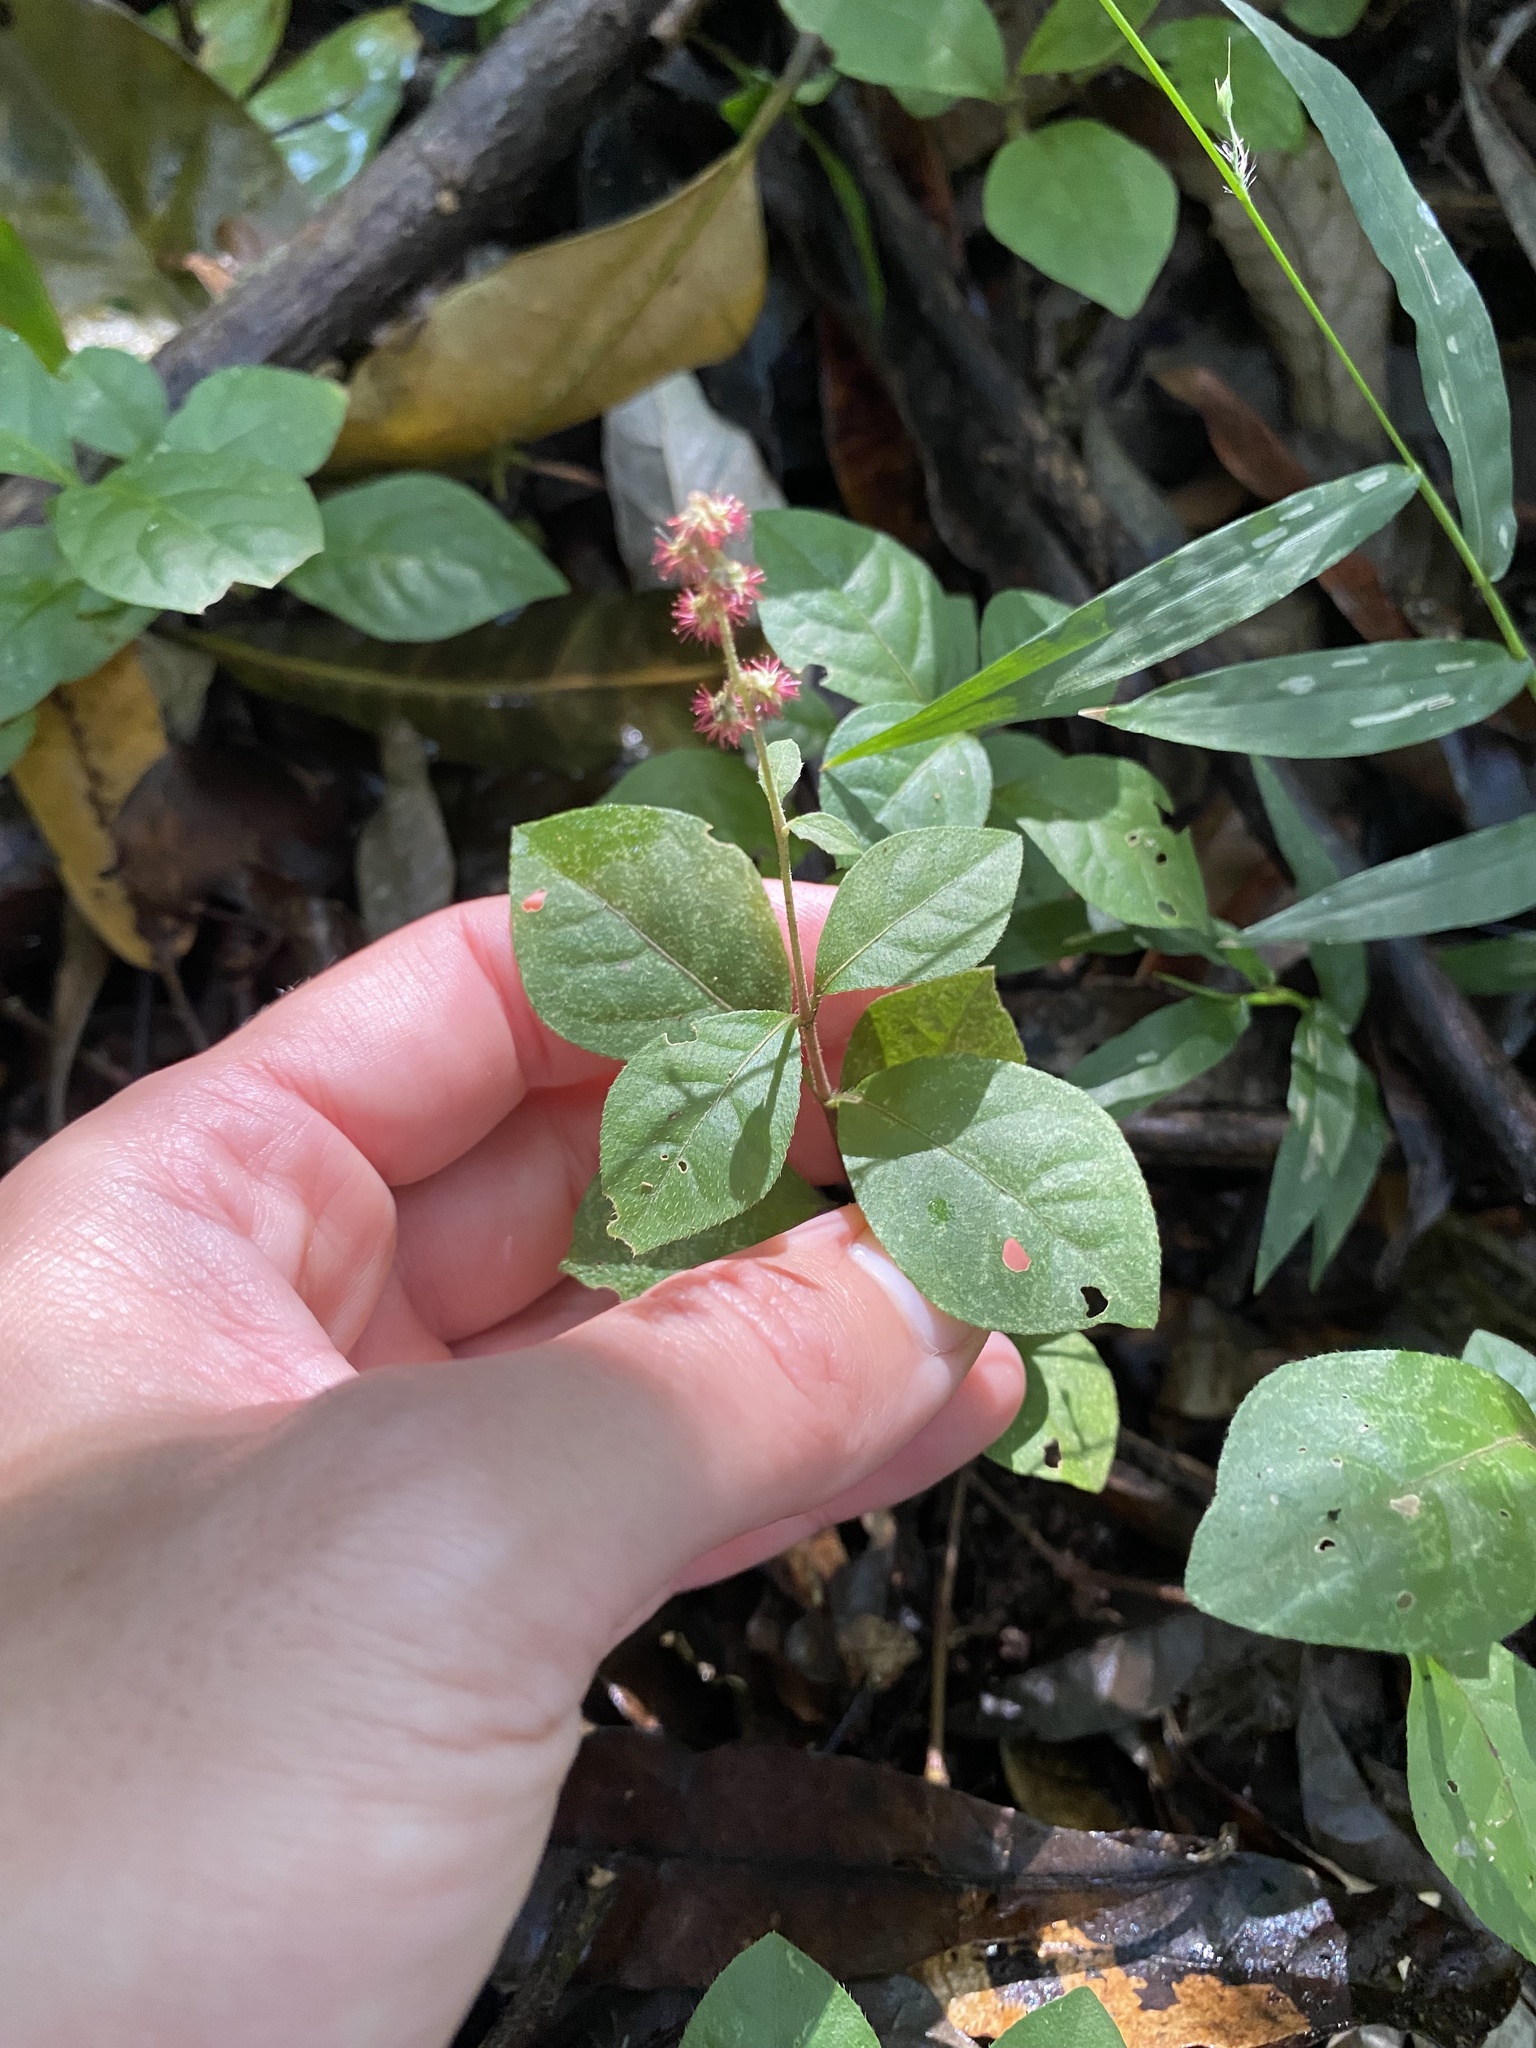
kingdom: Plantae
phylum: Tracheophyta
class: Magnoliopsida
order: Caryophyllales
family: Amaranthaceae
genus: Pupalia
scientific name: Pupalia lappacea
